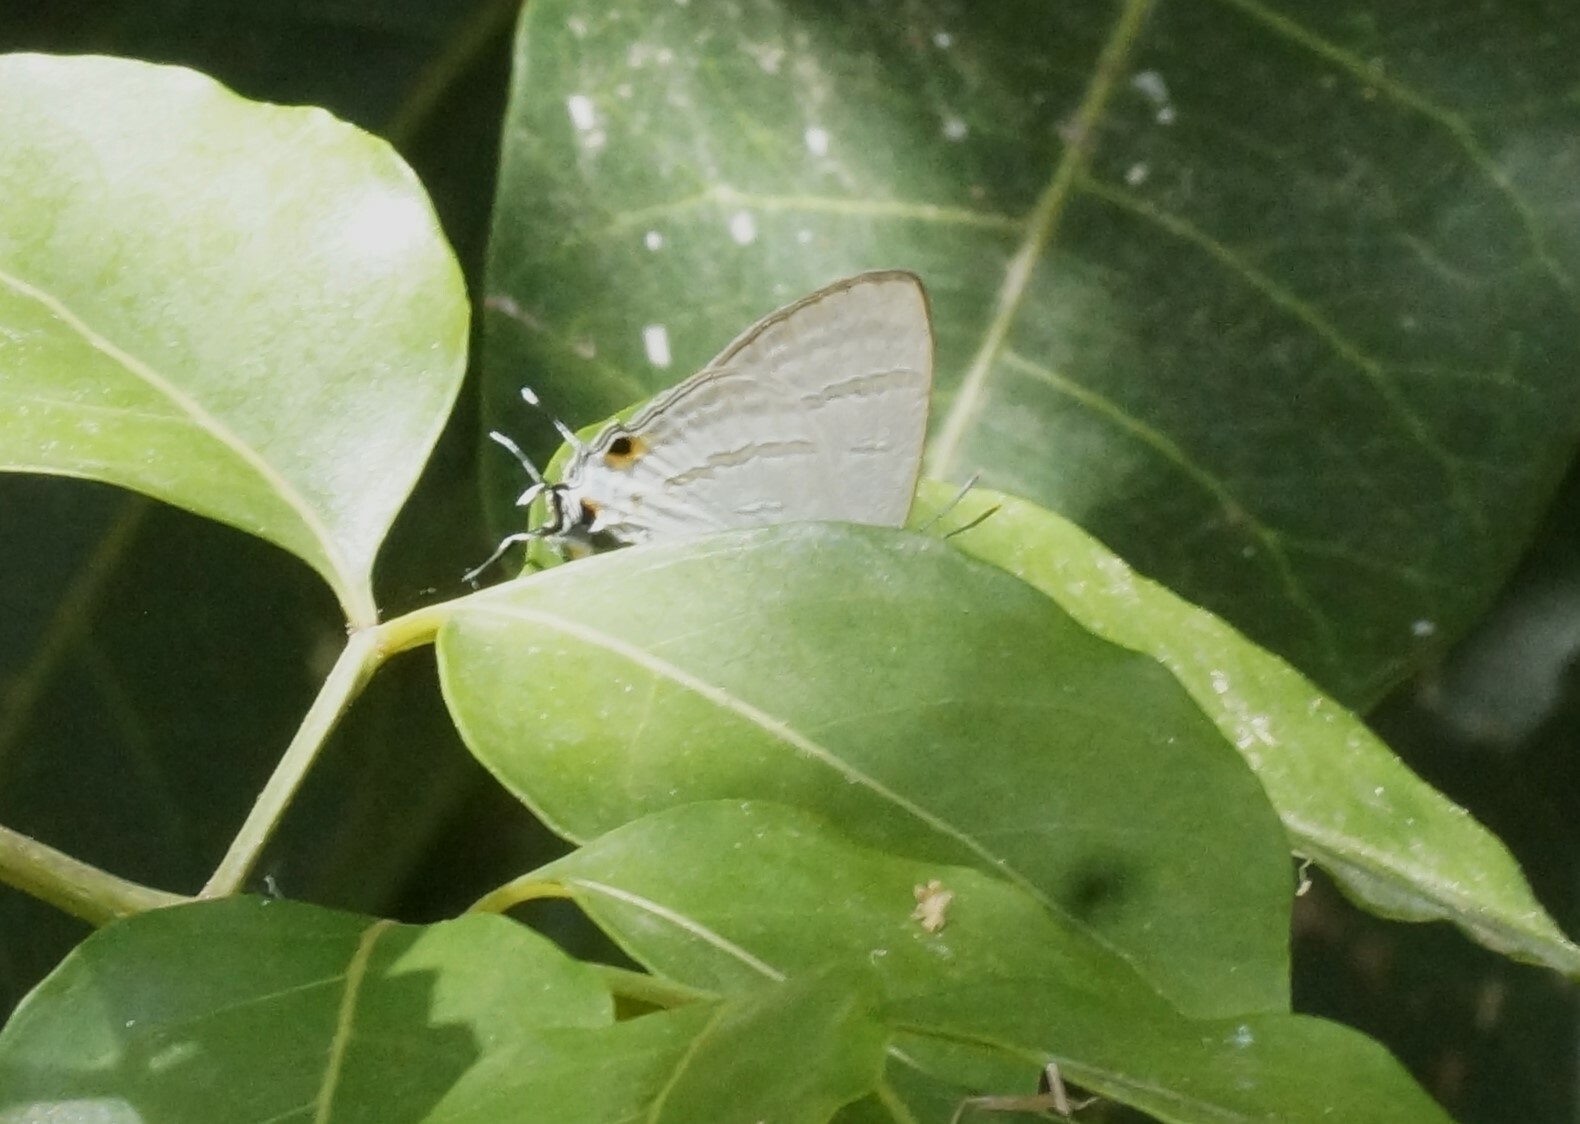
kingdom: Animalia
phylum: Arthropoda
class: Insecta
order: Lepidoptera
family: Lycaenidae
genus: Hypolycaena
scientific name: Hypolycaena phorbas
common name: Black-spotted flash
